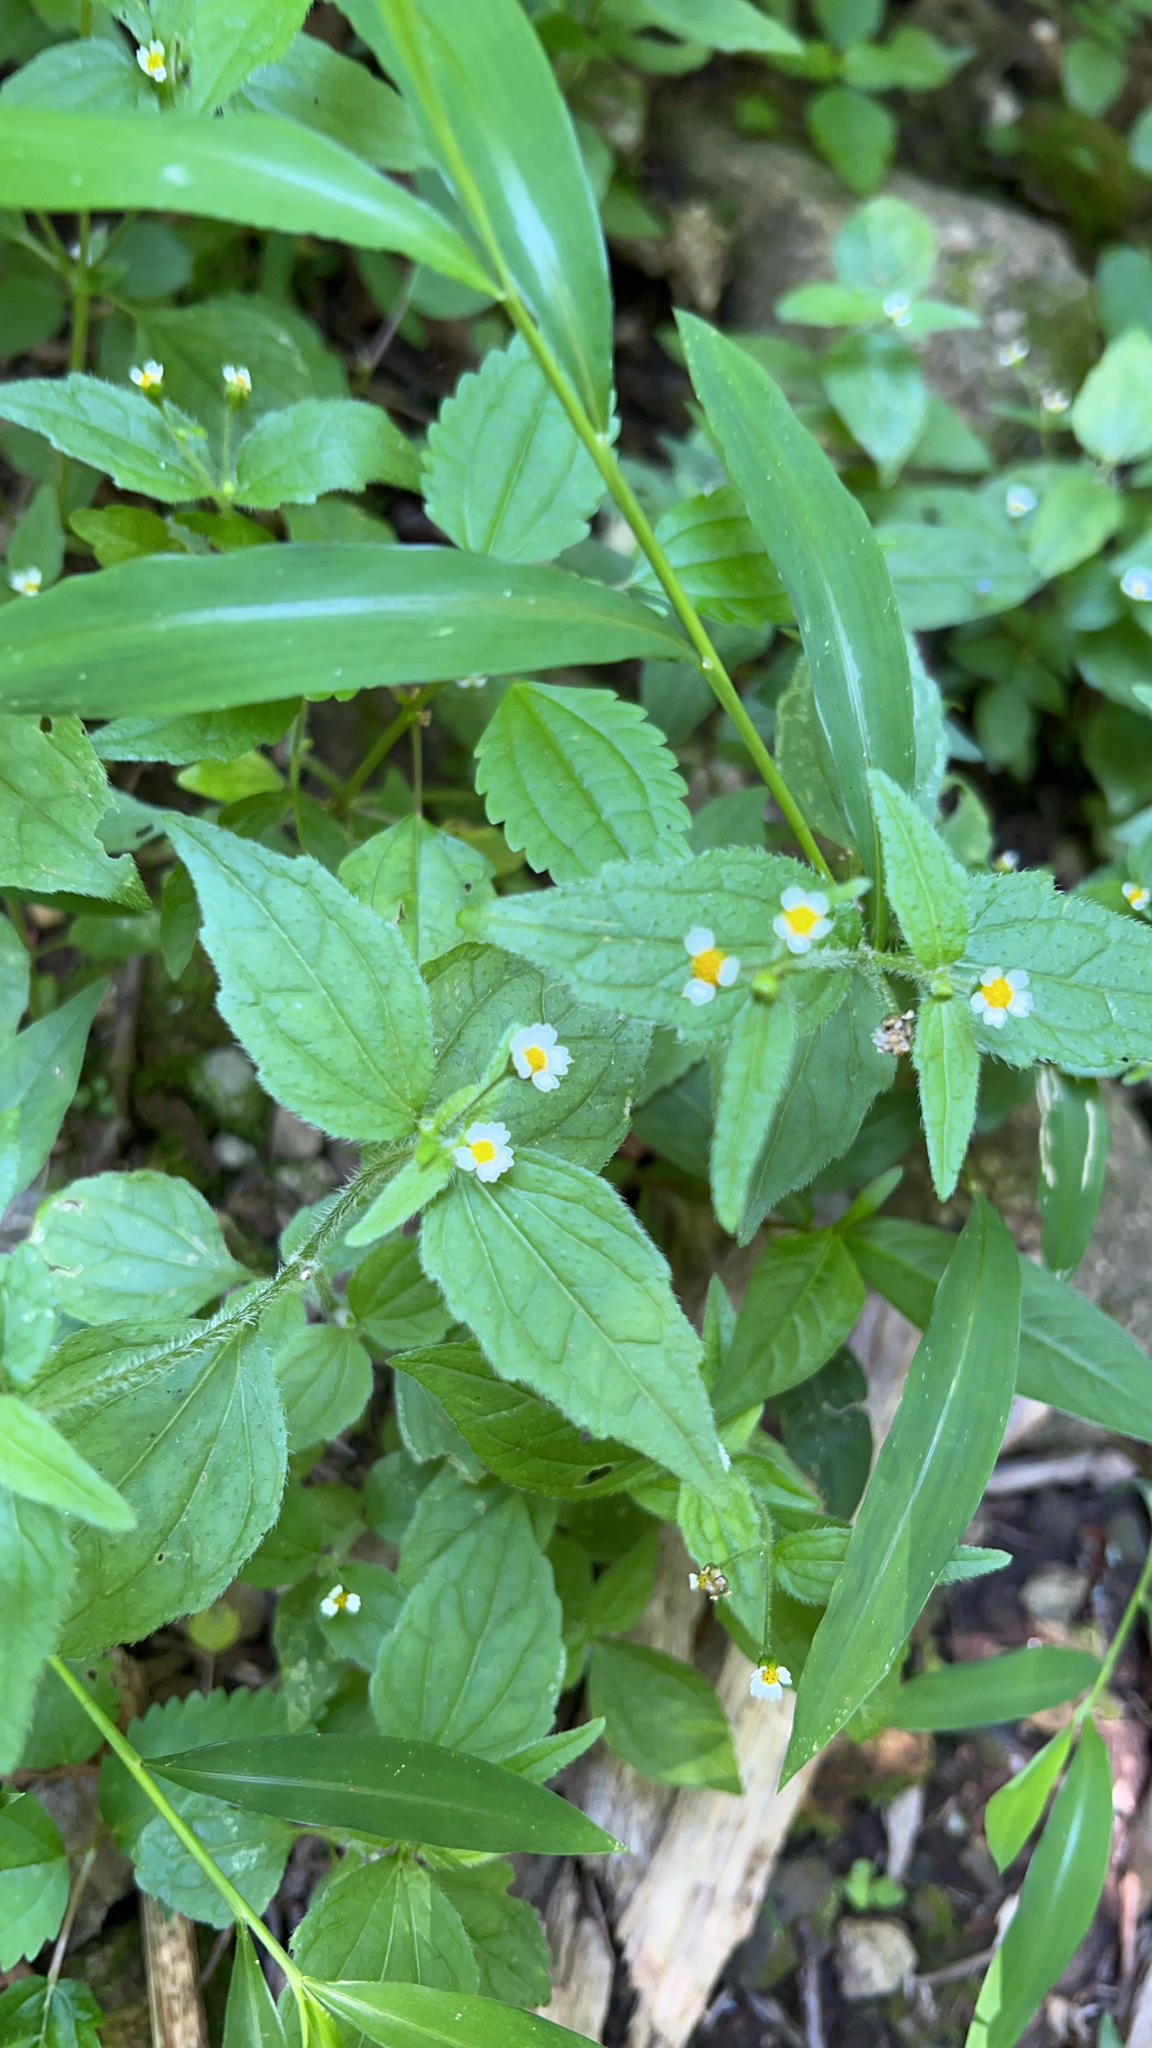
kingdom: Plantae
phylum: Tracheophyta
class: Magnoliopsida
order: Asterales
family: Asteraceae
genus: Galinsoga
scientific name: Galinsoga quadriradiata
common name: Shaggy soldier
